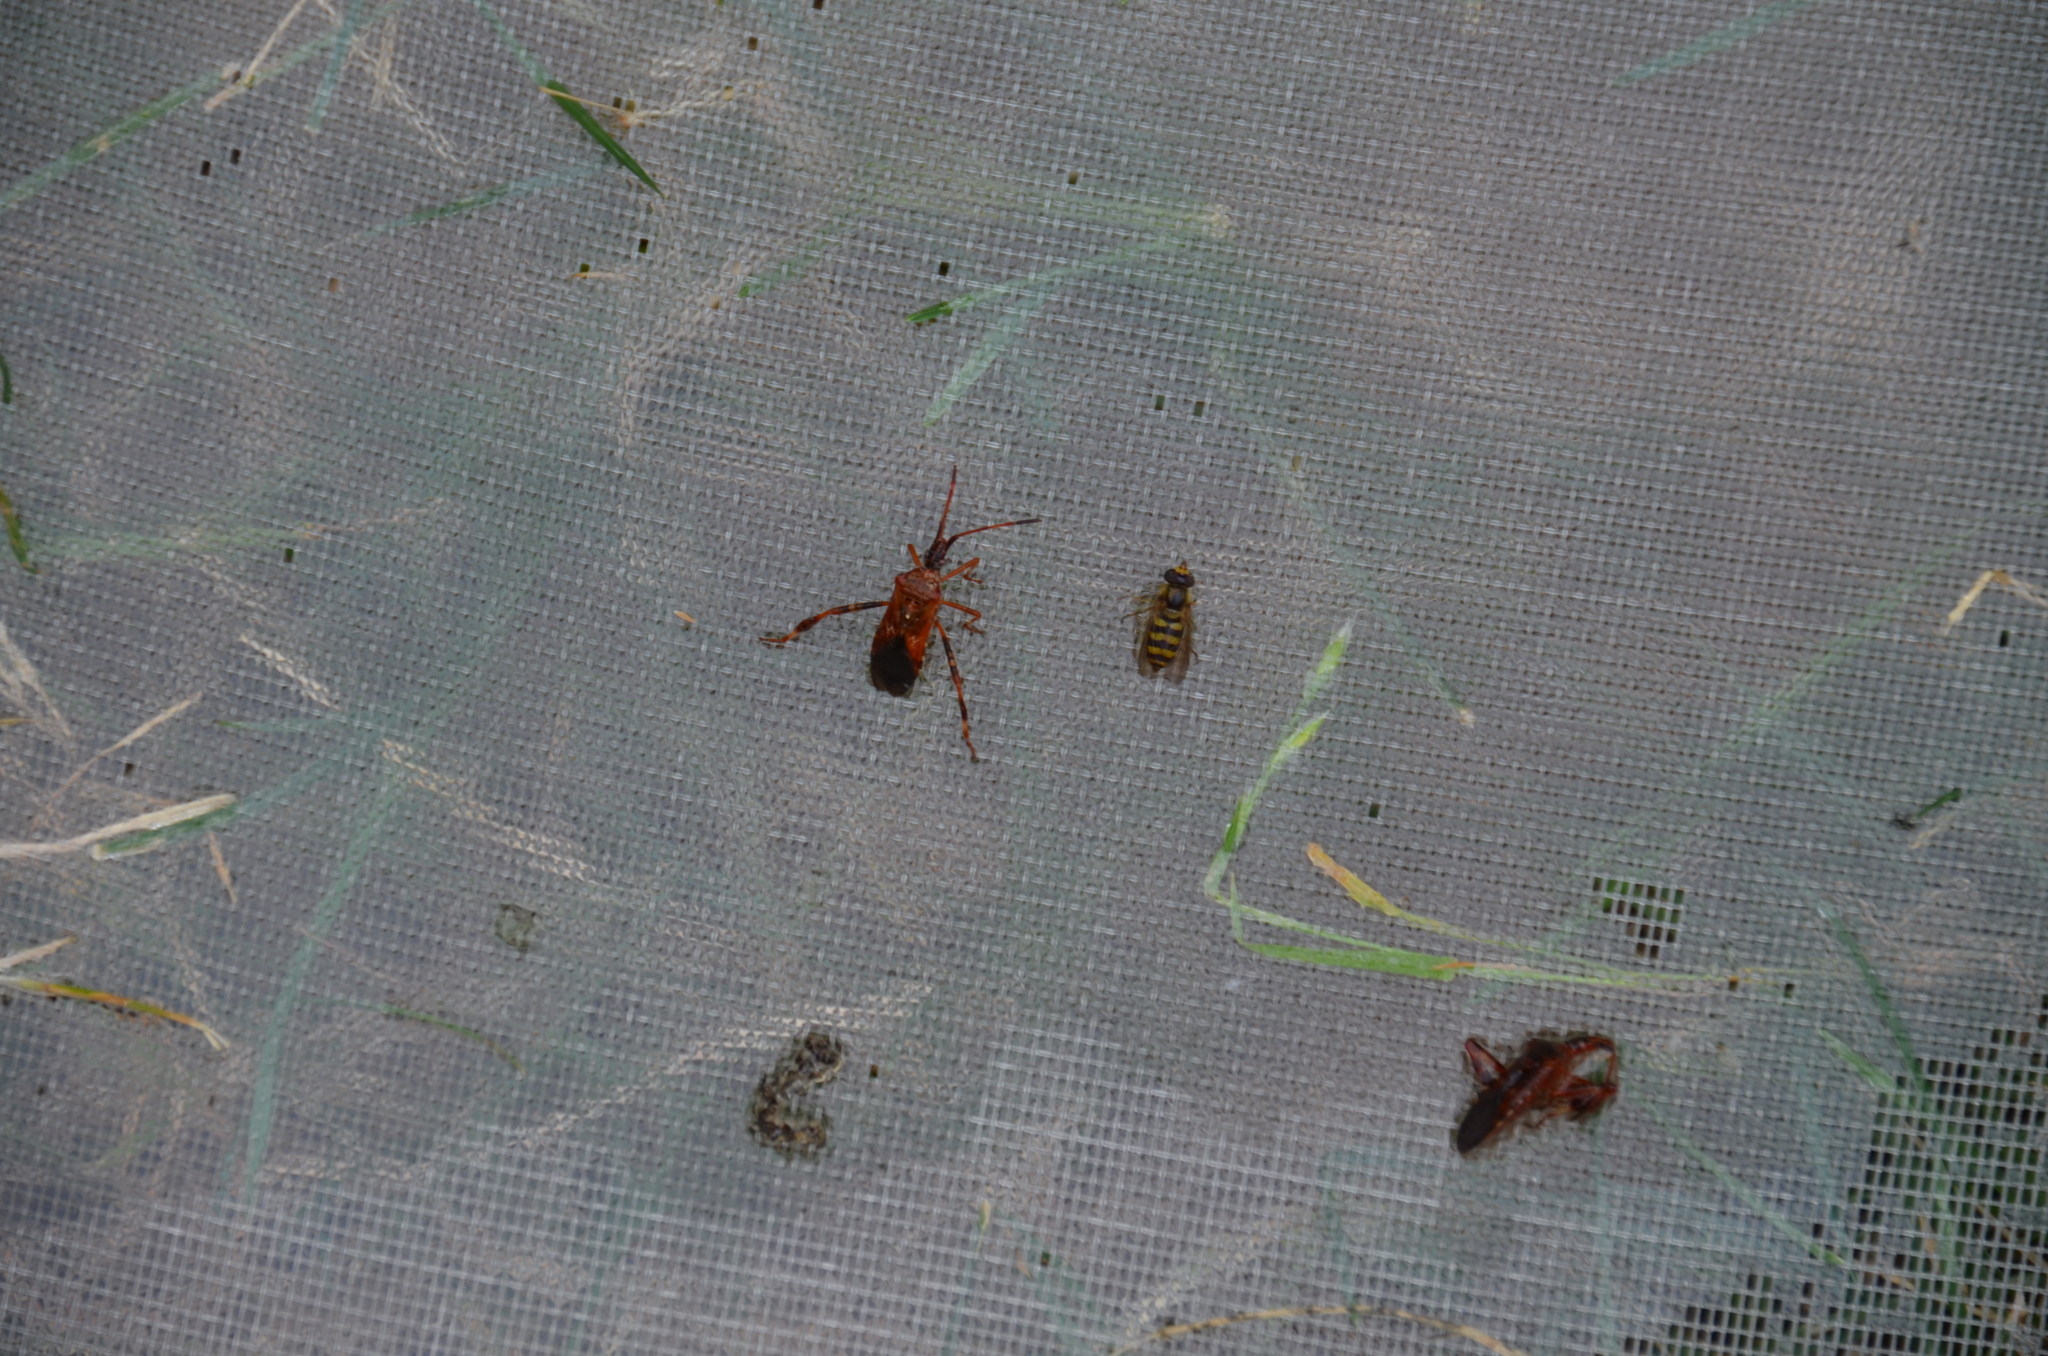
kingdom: Animalia
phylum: Arthropoda
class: Insecta
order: Diptera
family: Syrphidae
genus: Eupeodes
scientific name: Eupeodes latifasciatus
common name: Variable aphideater
